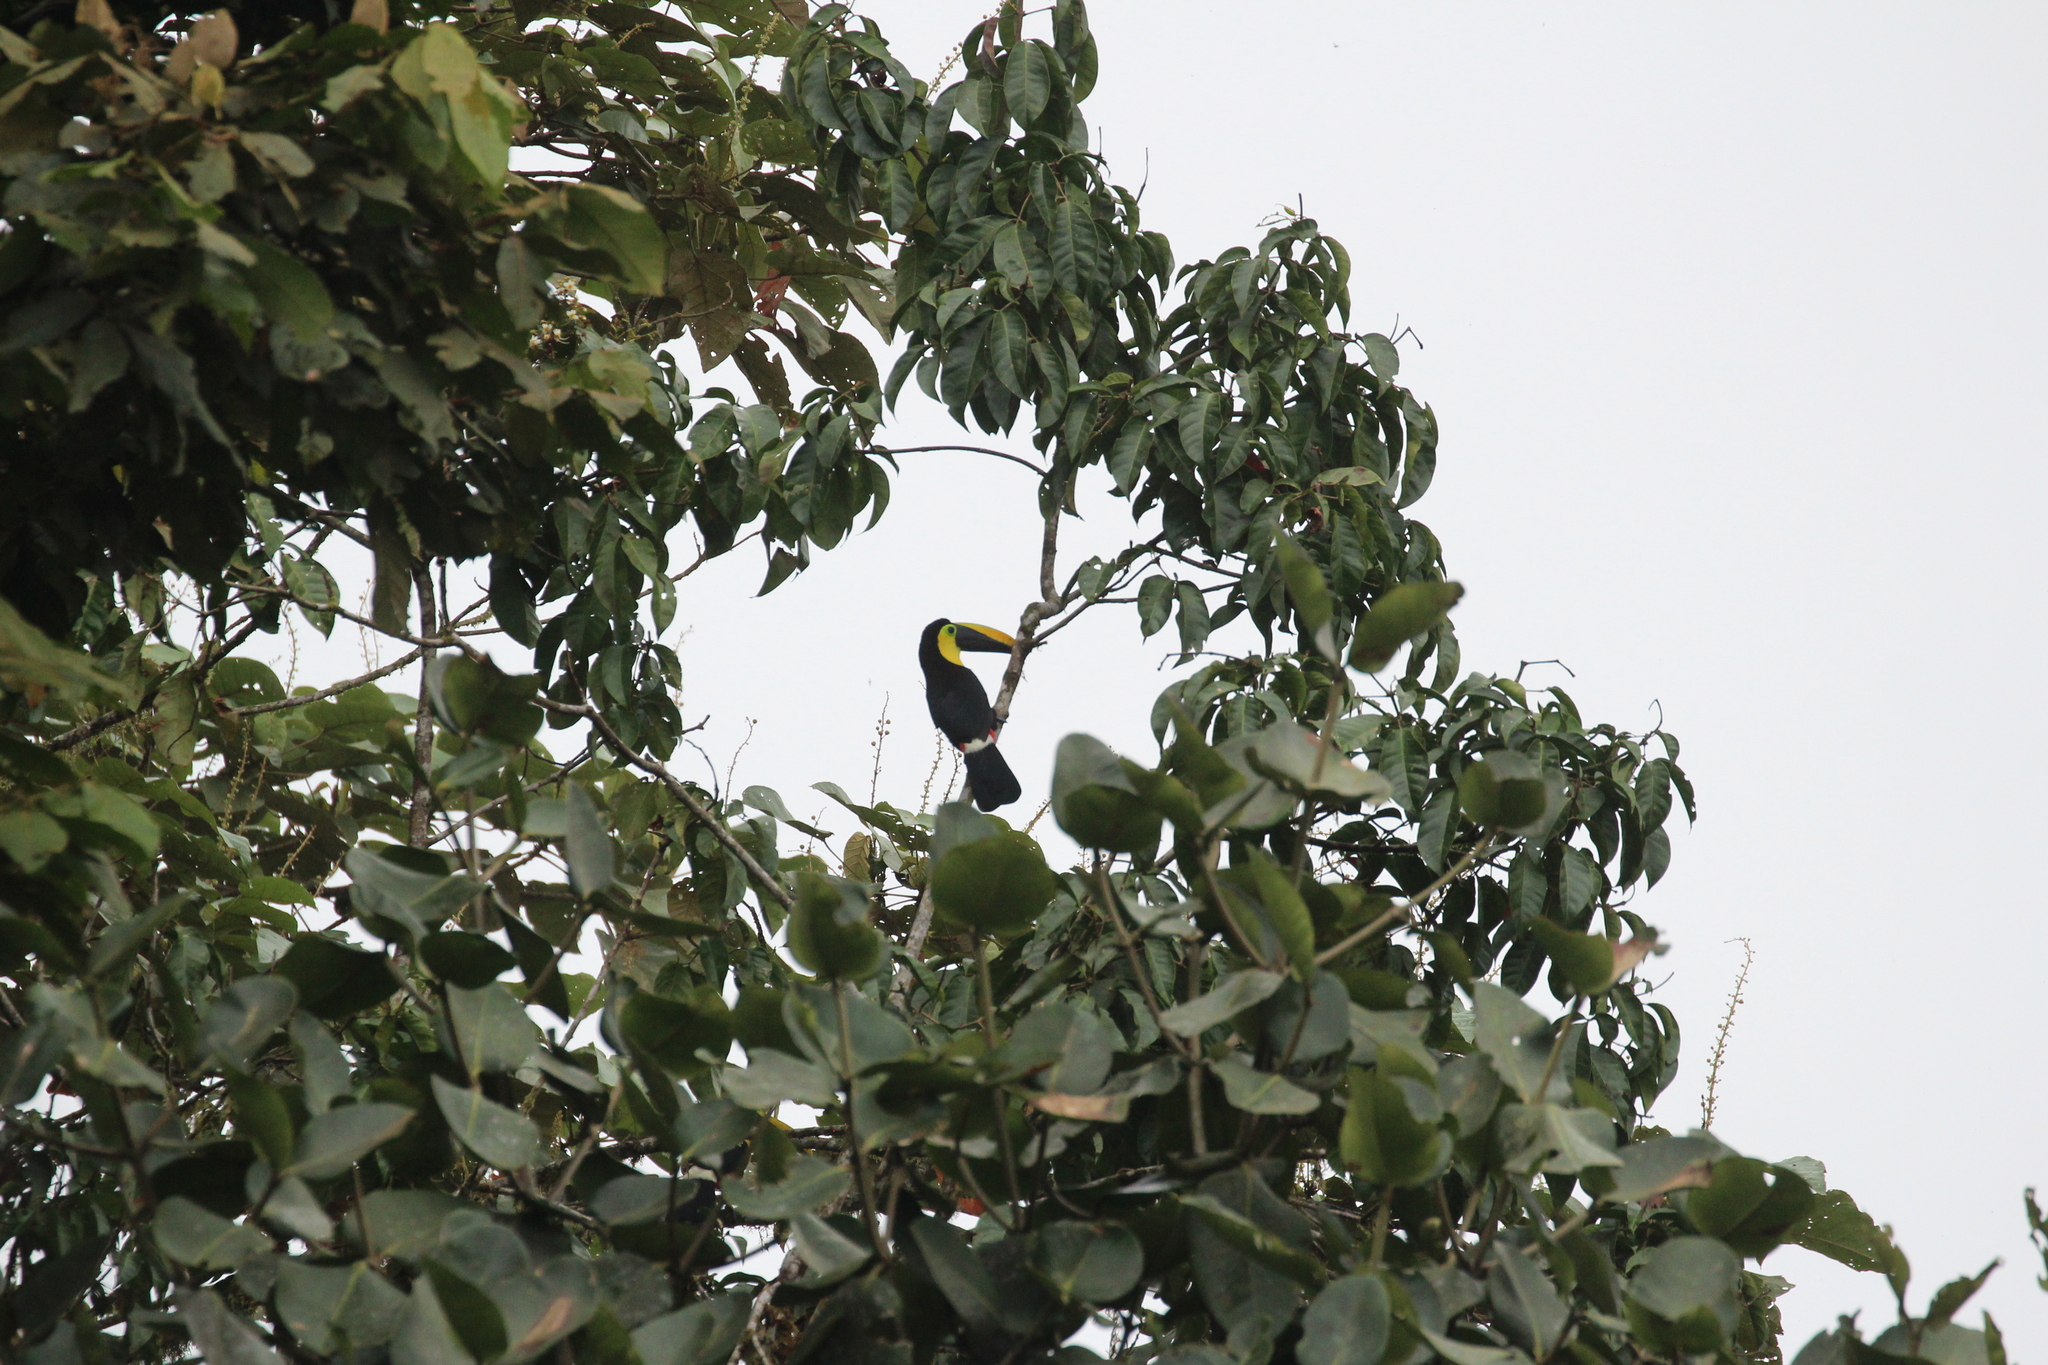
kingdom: Animalia
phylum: Chordata
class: Aves
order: Piciformes
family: Ramphastidae
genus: Ramphastos
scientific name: Ramphastos brevis
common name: Choco toucan
